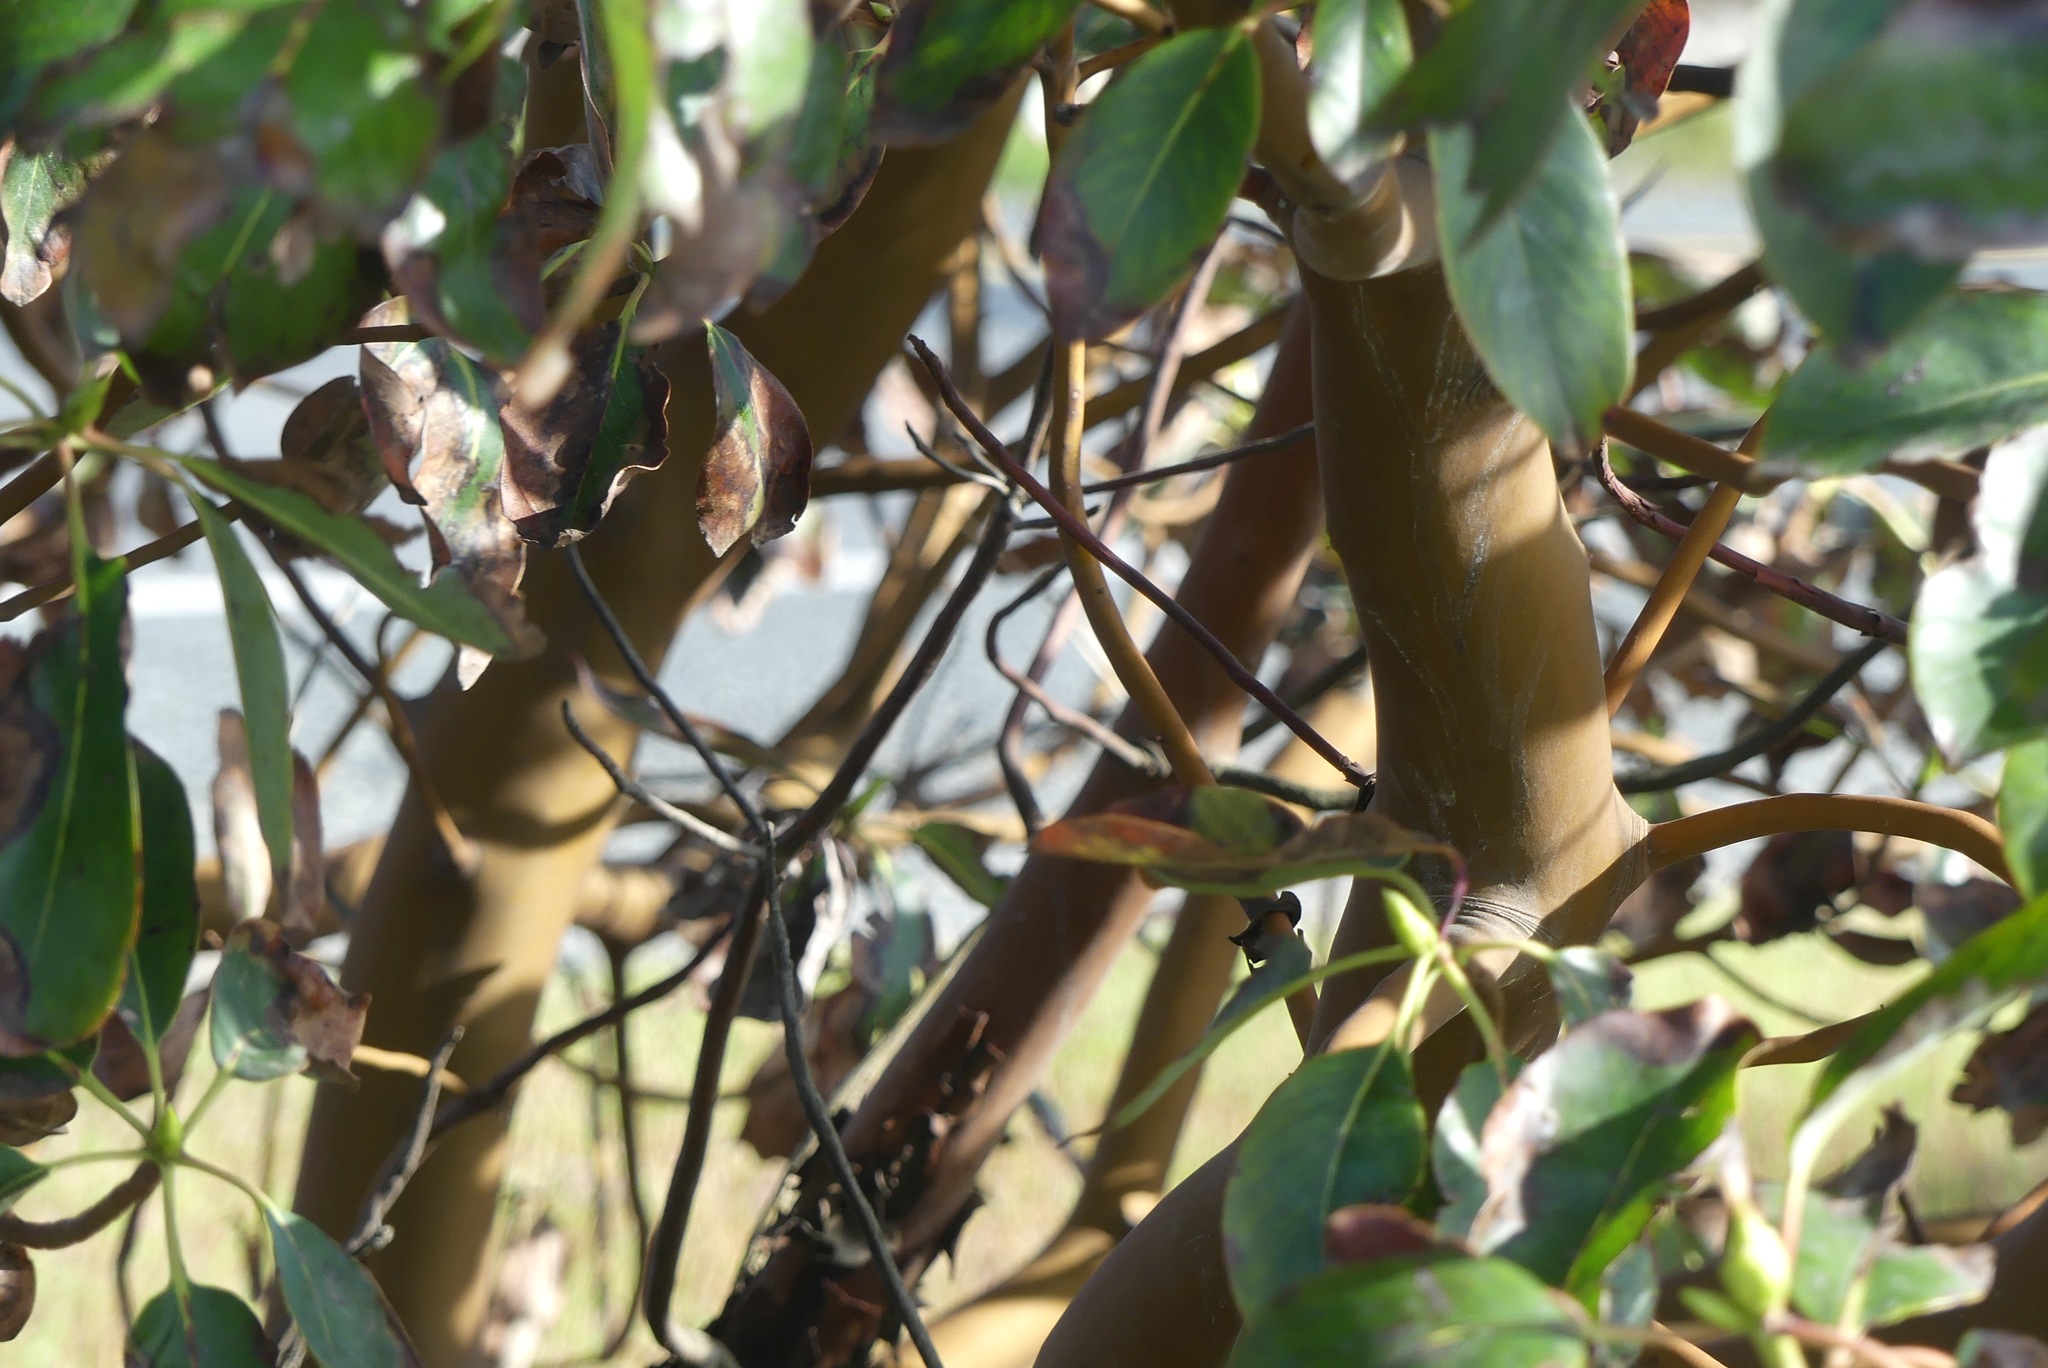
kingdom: Plantae
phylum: Tracheophyta
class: Magnoliopsida
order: Ericales
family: Ericaceae
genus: Arbutus
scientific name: Arbutus menziesii
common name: Pacific madrone
